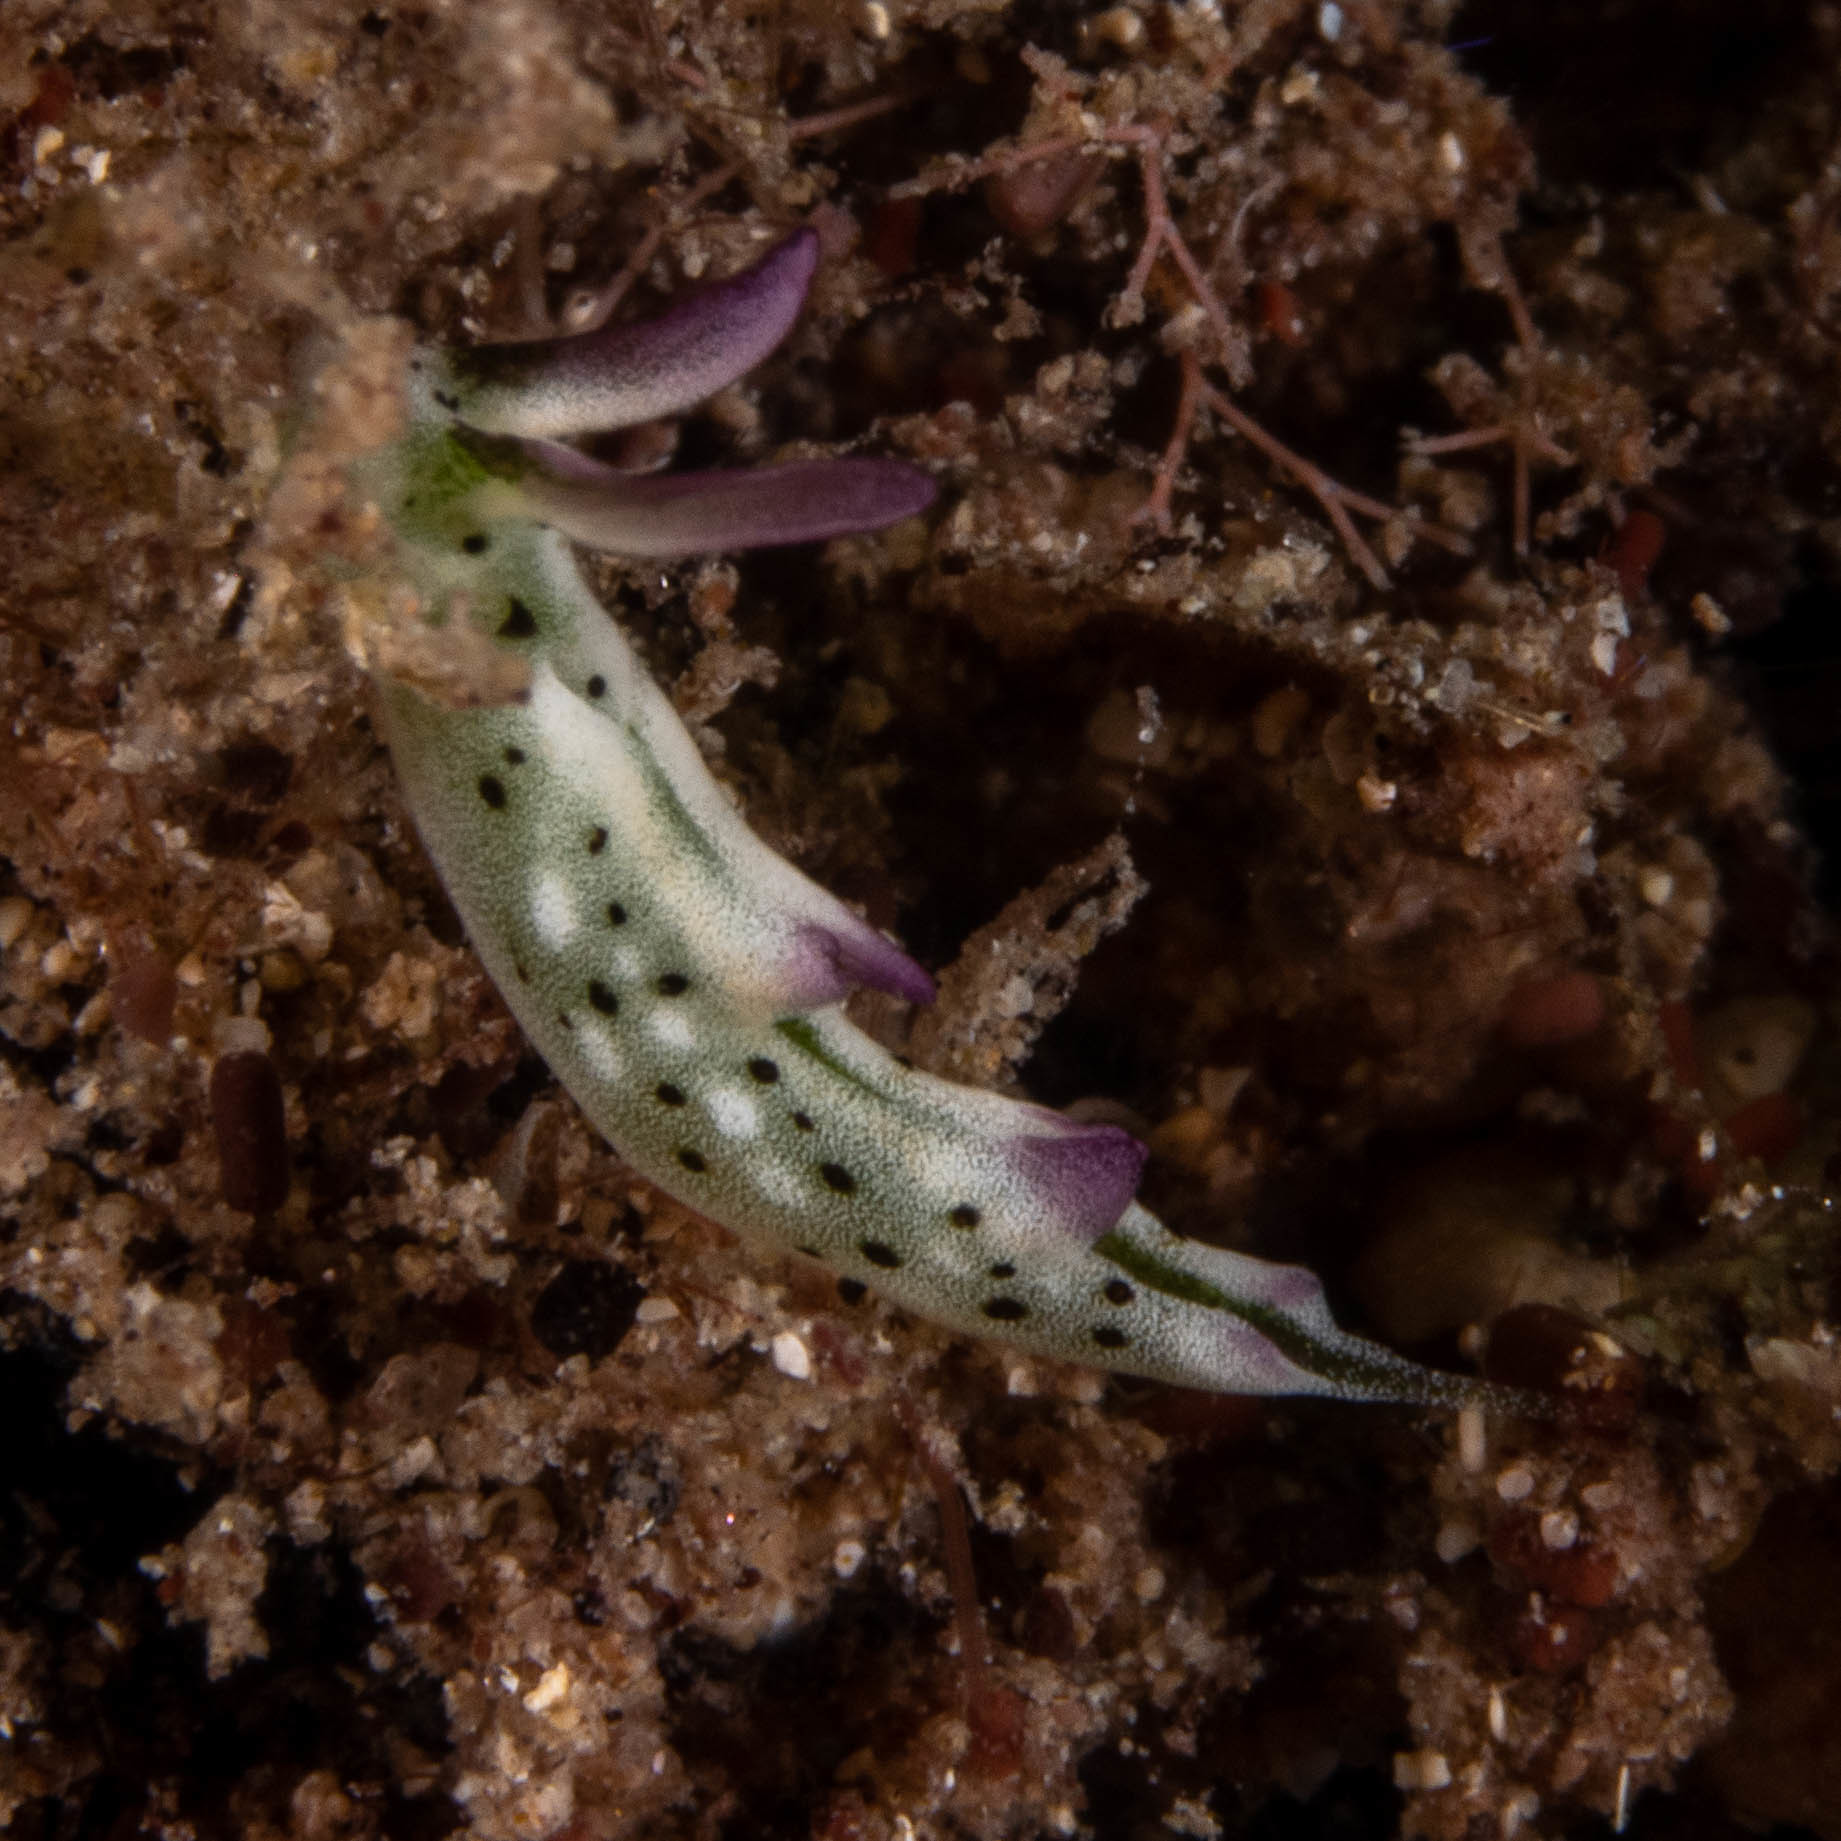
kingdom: Animalia
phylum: Mollusca
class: Gastropoda
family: Plakobranchidae
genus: Elysia
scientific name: Elysia thompsoni
